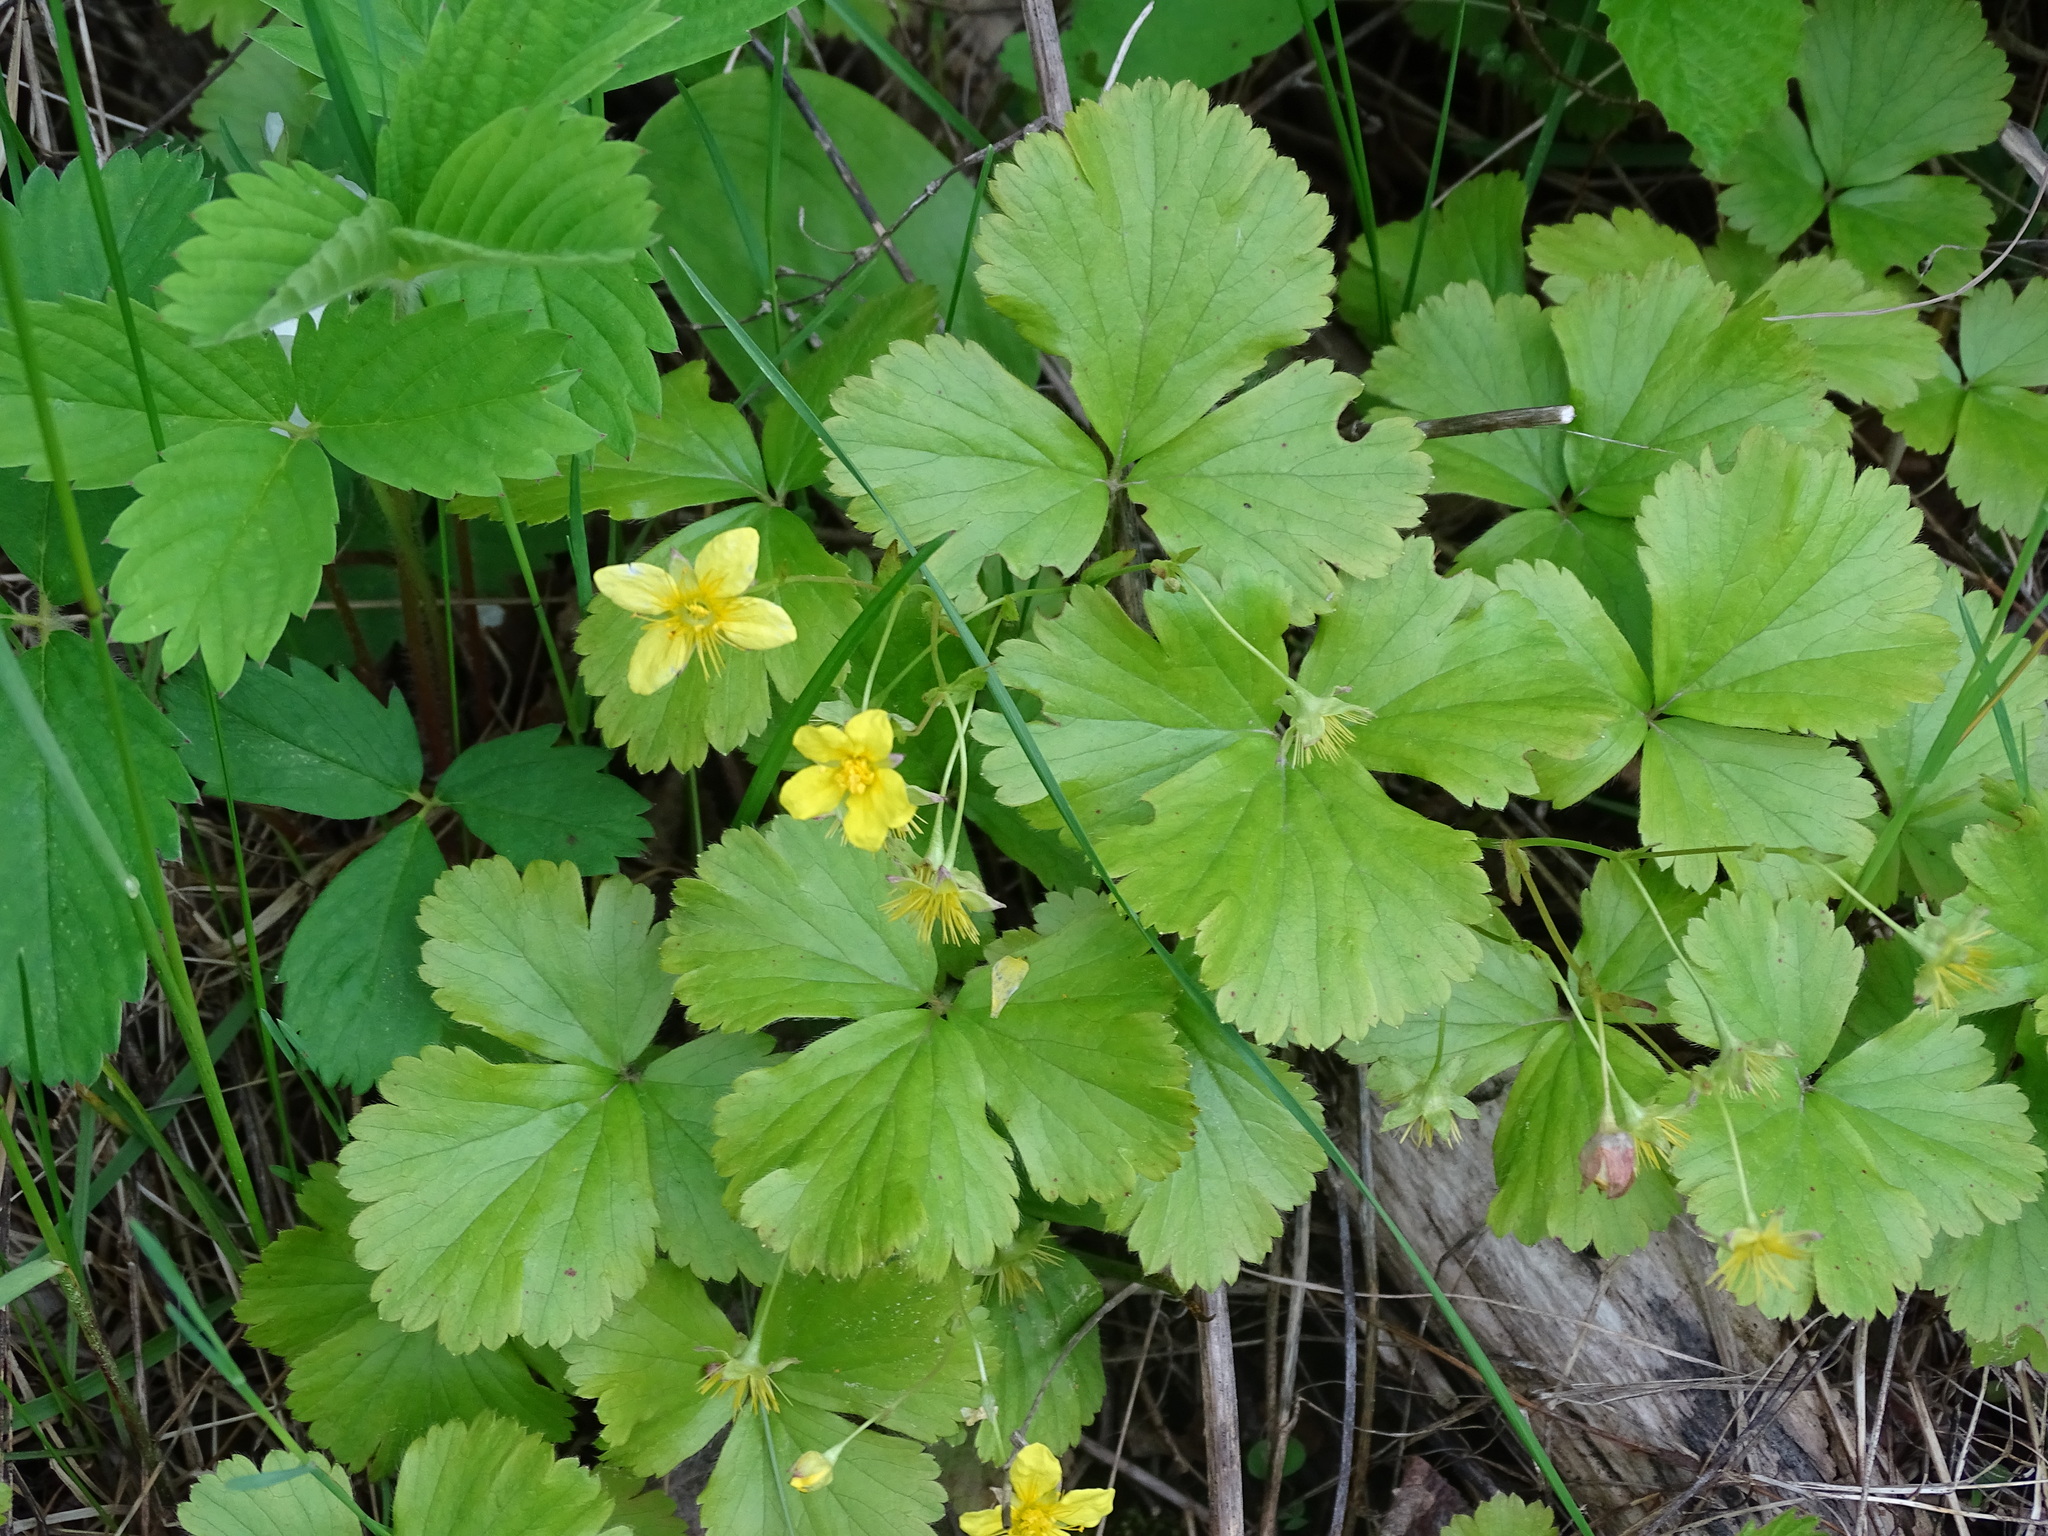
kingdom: Plantae
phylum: Tracheophyta
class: Magnoliopsida
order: Rosales
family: Rosaceae
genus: Geum
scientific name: Geum fragarioides
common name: Appalachian barren strawberry
